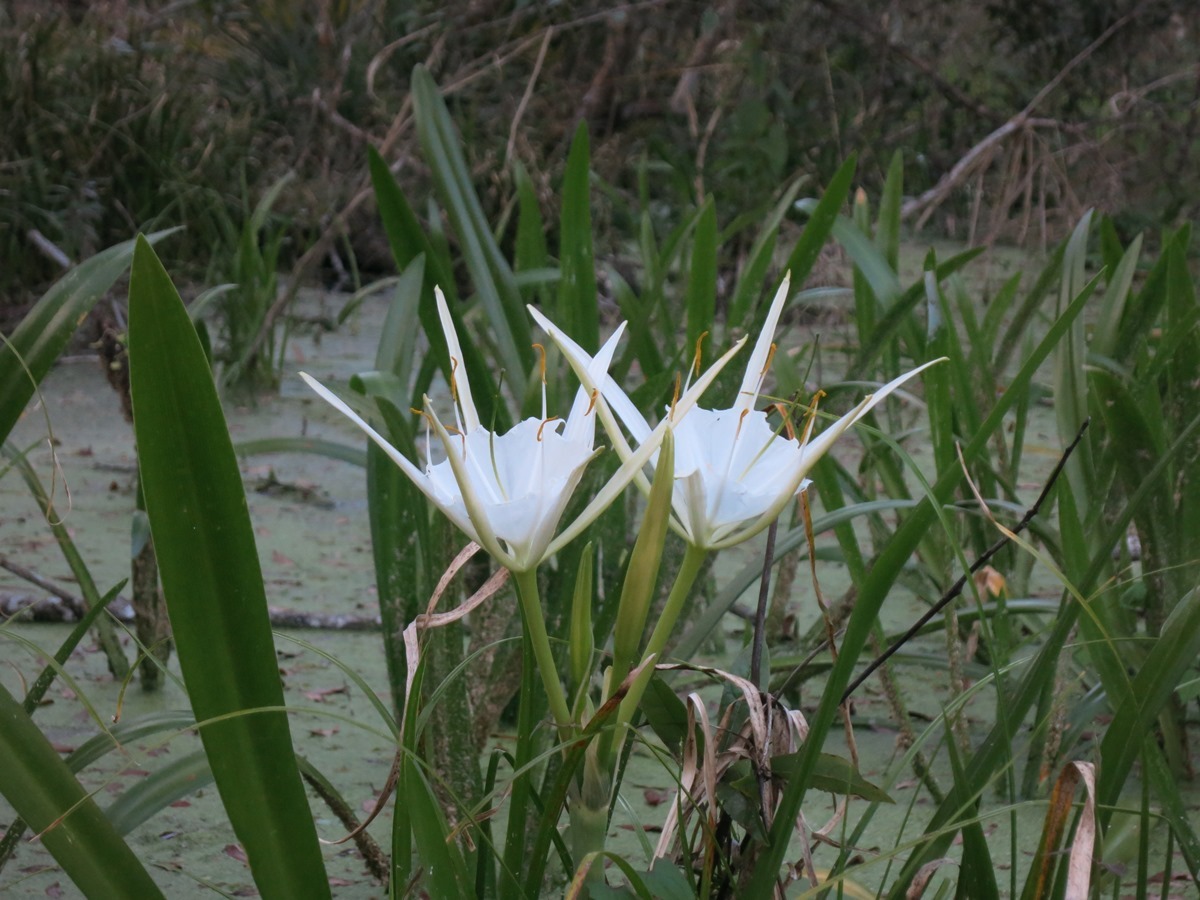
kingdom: Plantae
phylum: Tracheophyta
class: Liliopsida
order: Asparagales
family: Amaryllidaceae
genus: Hymenocallis
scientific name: Hymenocallis rotata
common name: Spring-run spider-lily
